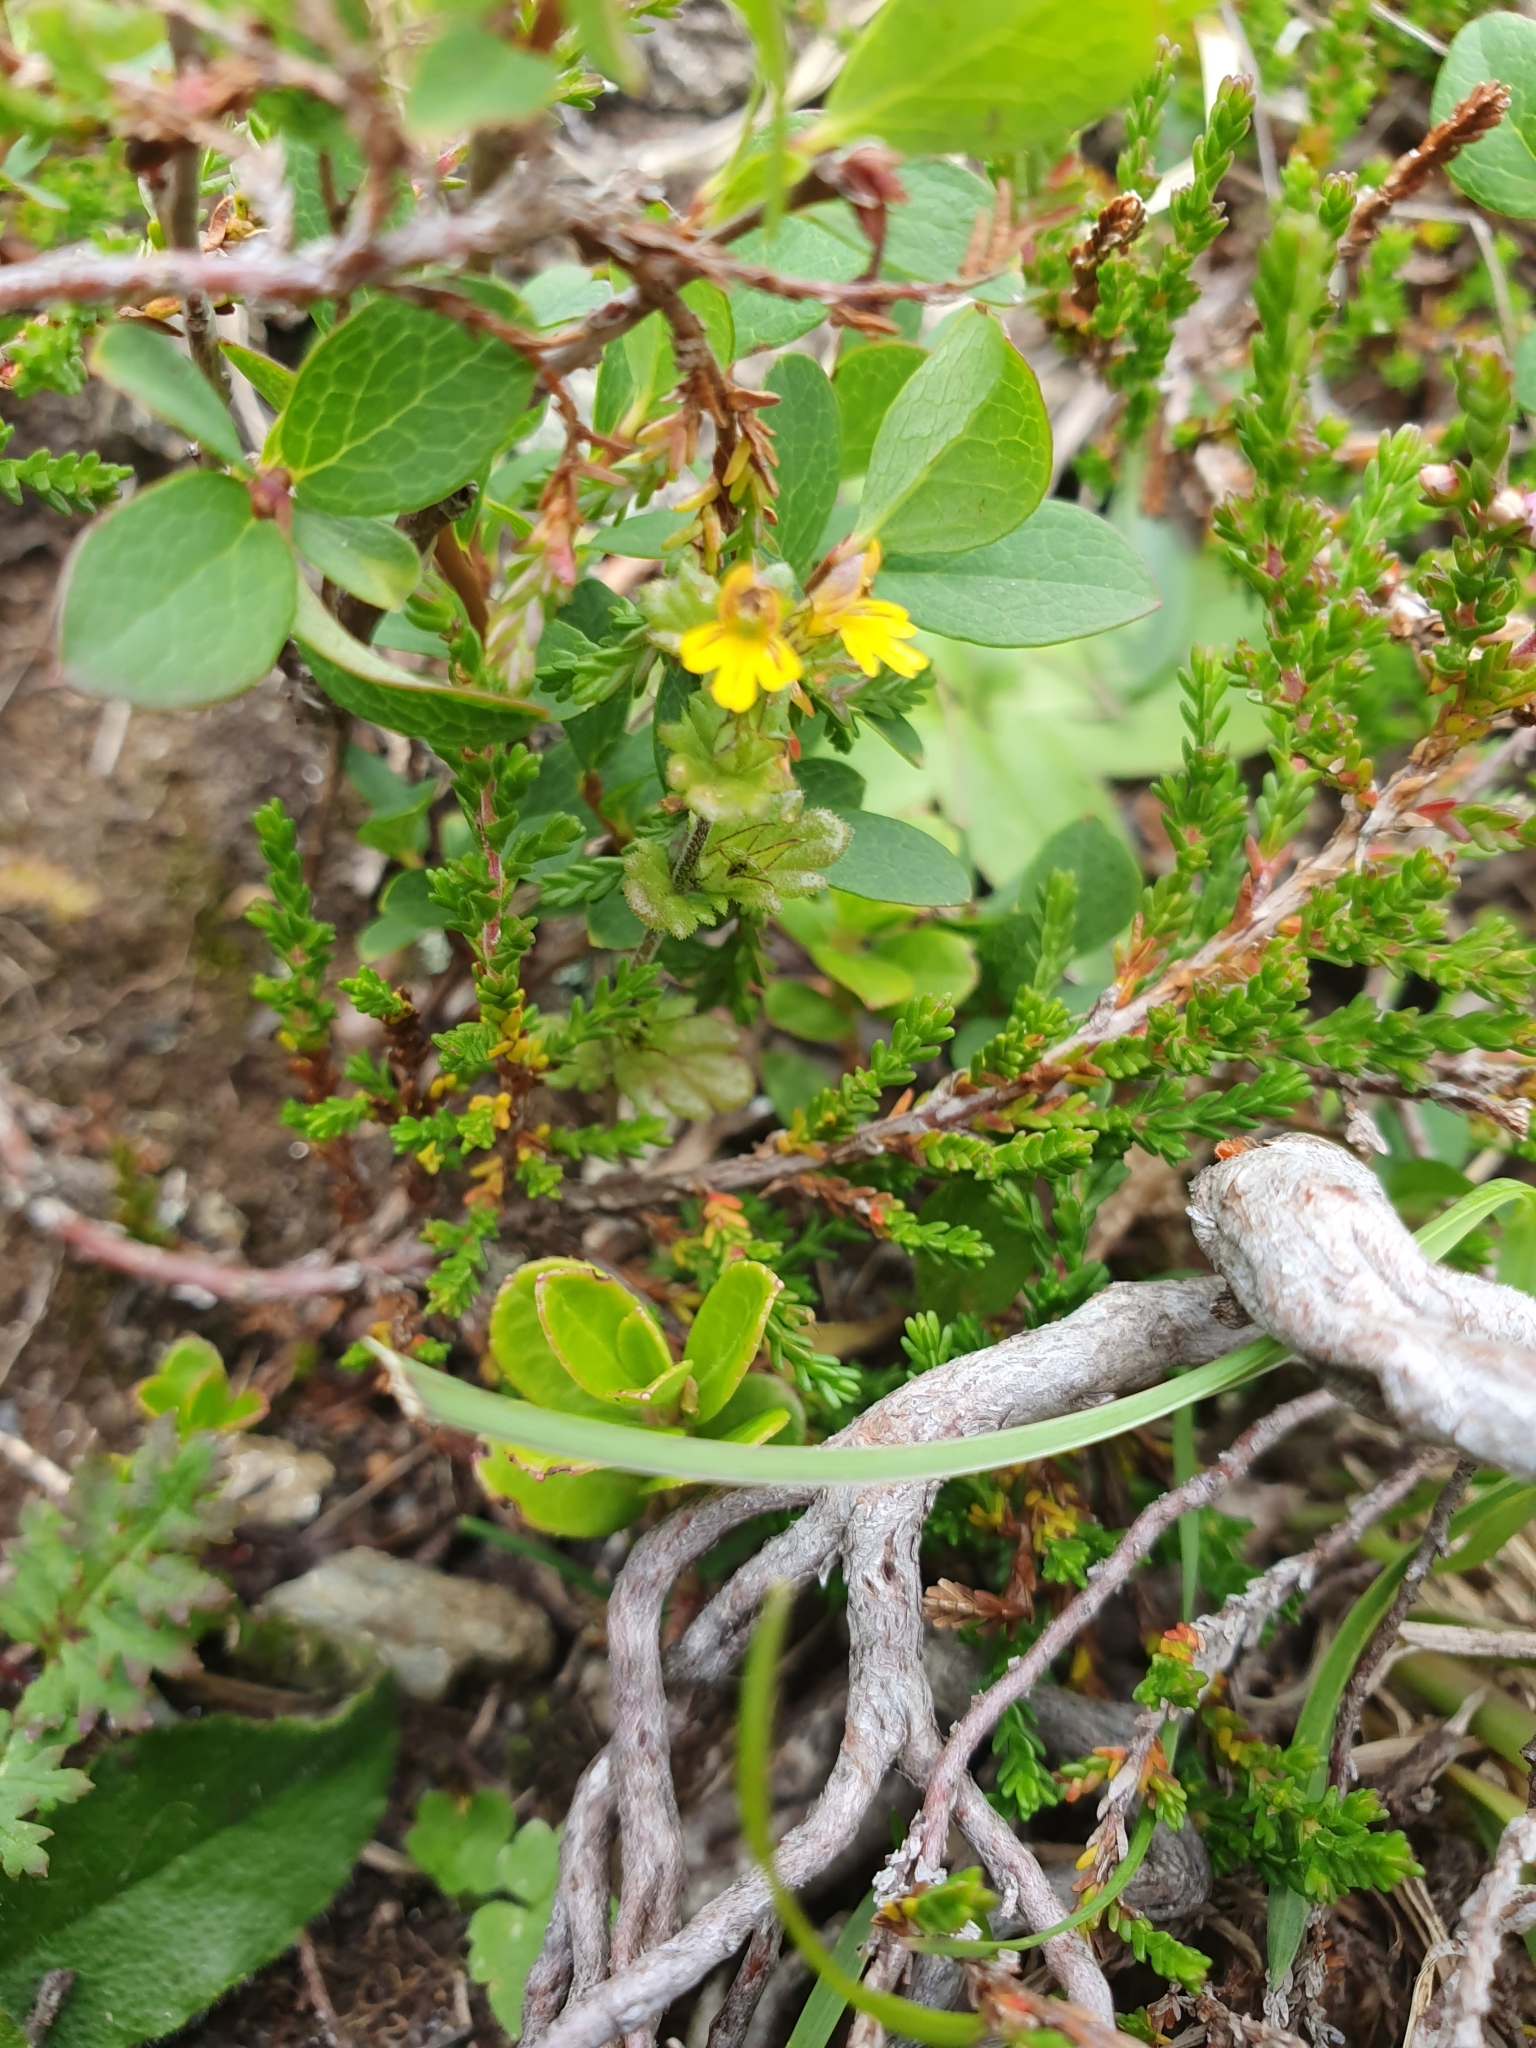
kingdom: Plantae
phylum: Tracheophyta
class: Magnoliopsida
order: Lamiales
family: Orobanchaceae
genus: Euphrasia
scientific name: Euphrasia minima
